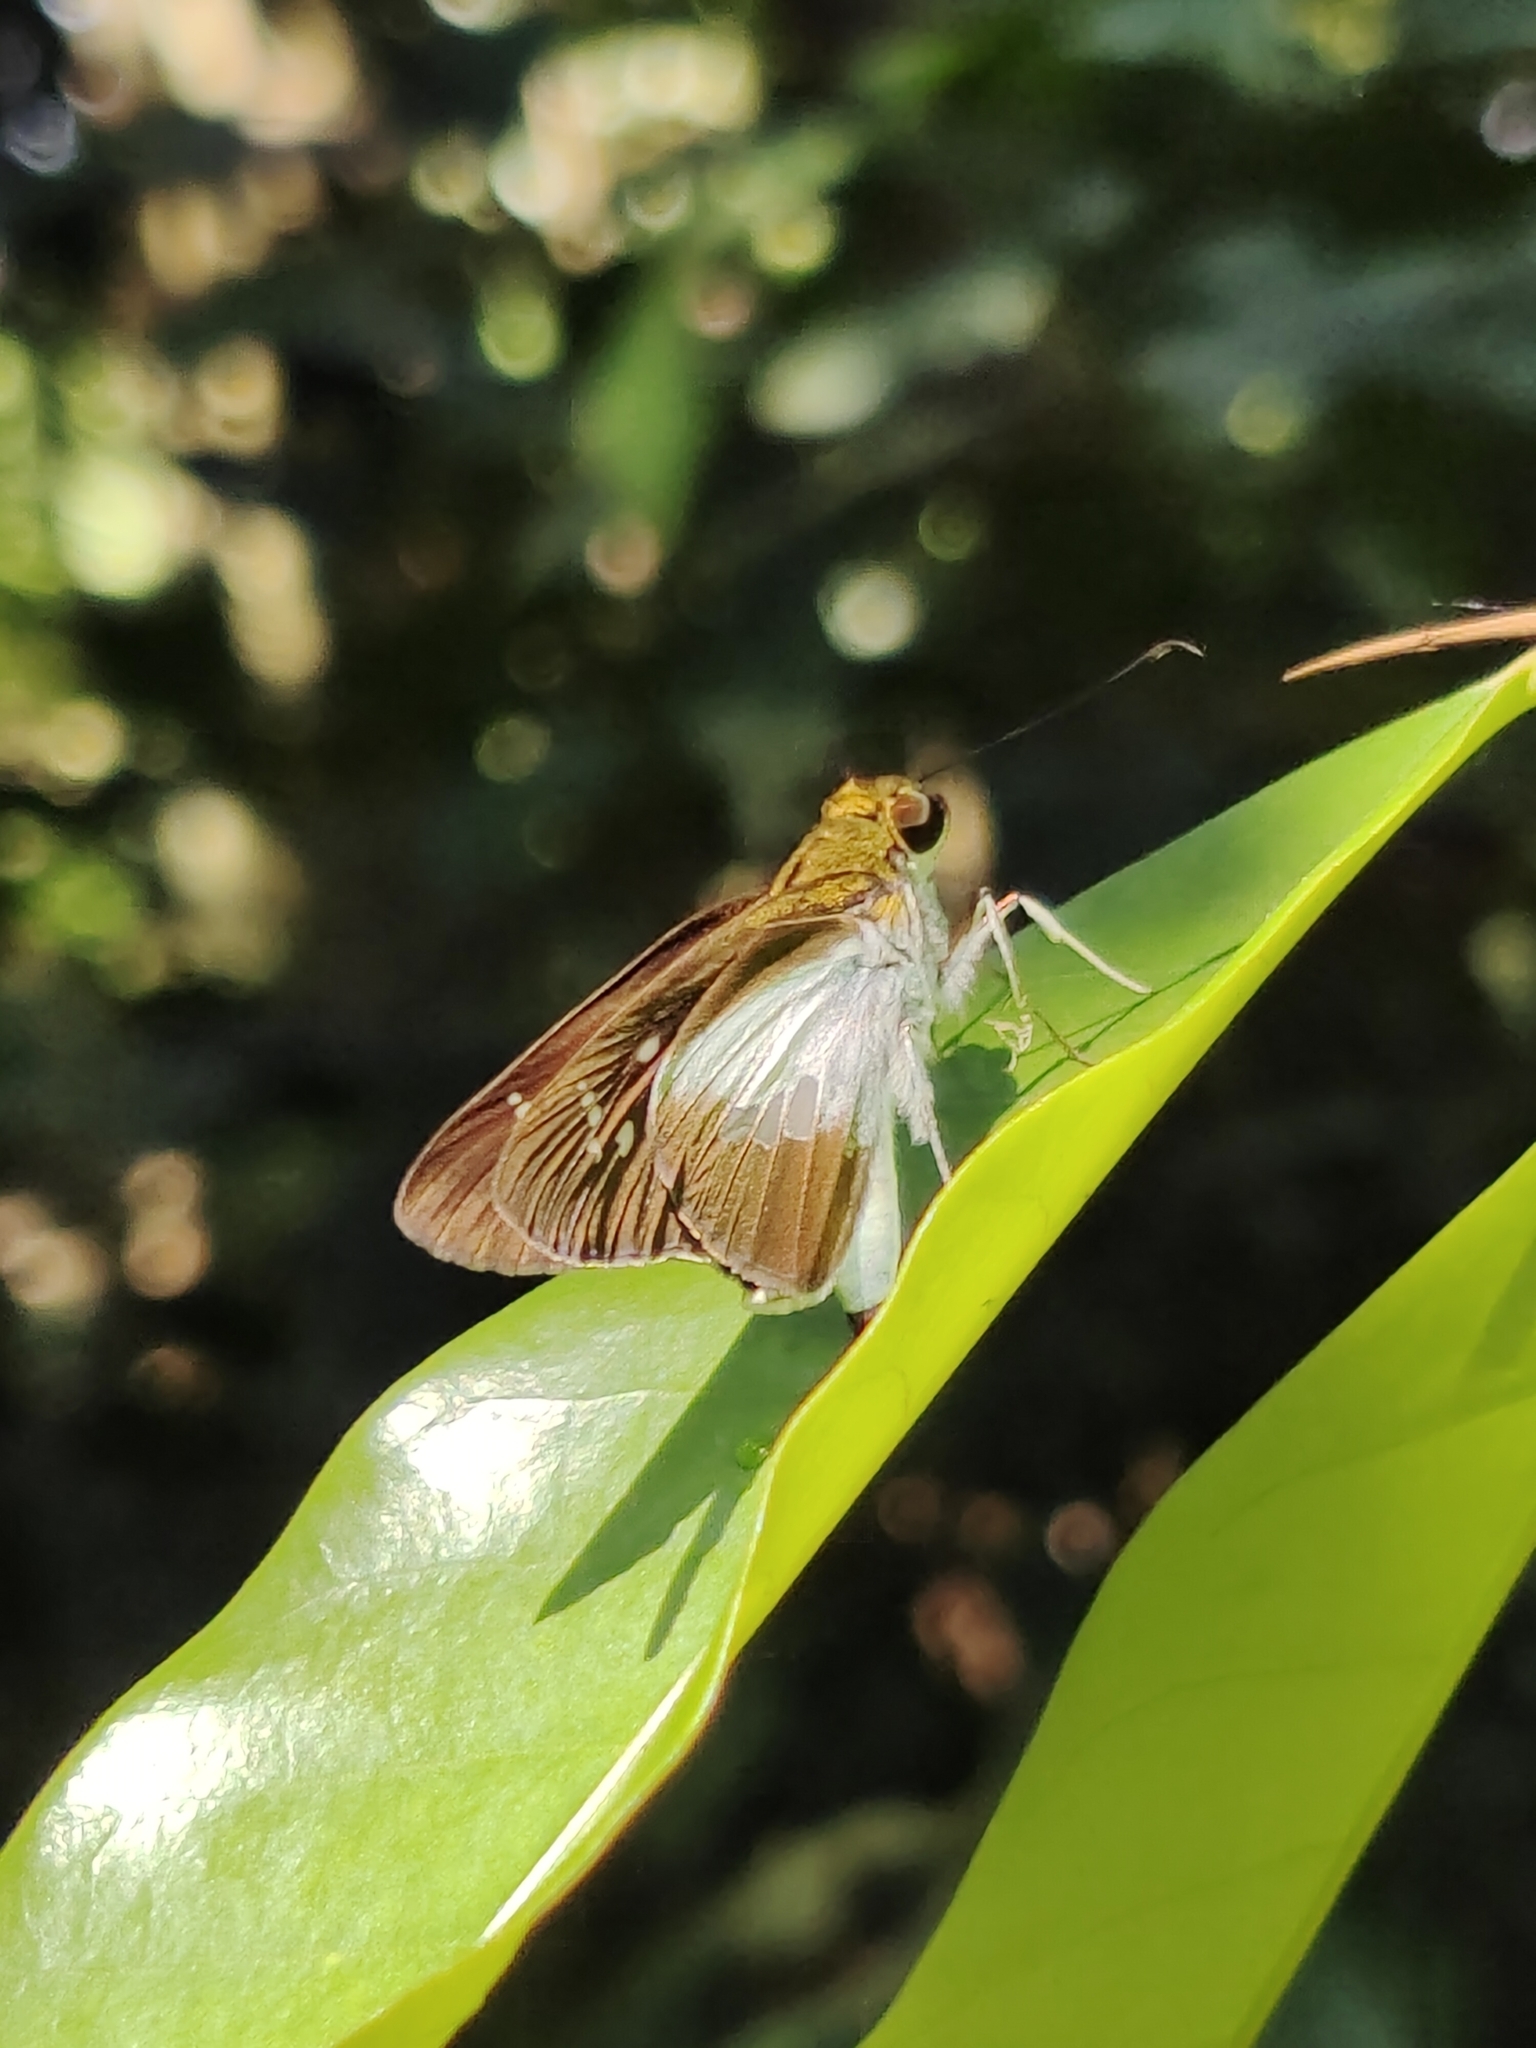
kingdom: Animalia
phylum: Arthropoda
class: Insecta
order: Lepidoptera
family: Hesperiidae
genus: Eetion
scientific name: Eetion elia
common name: White spotted palmer
